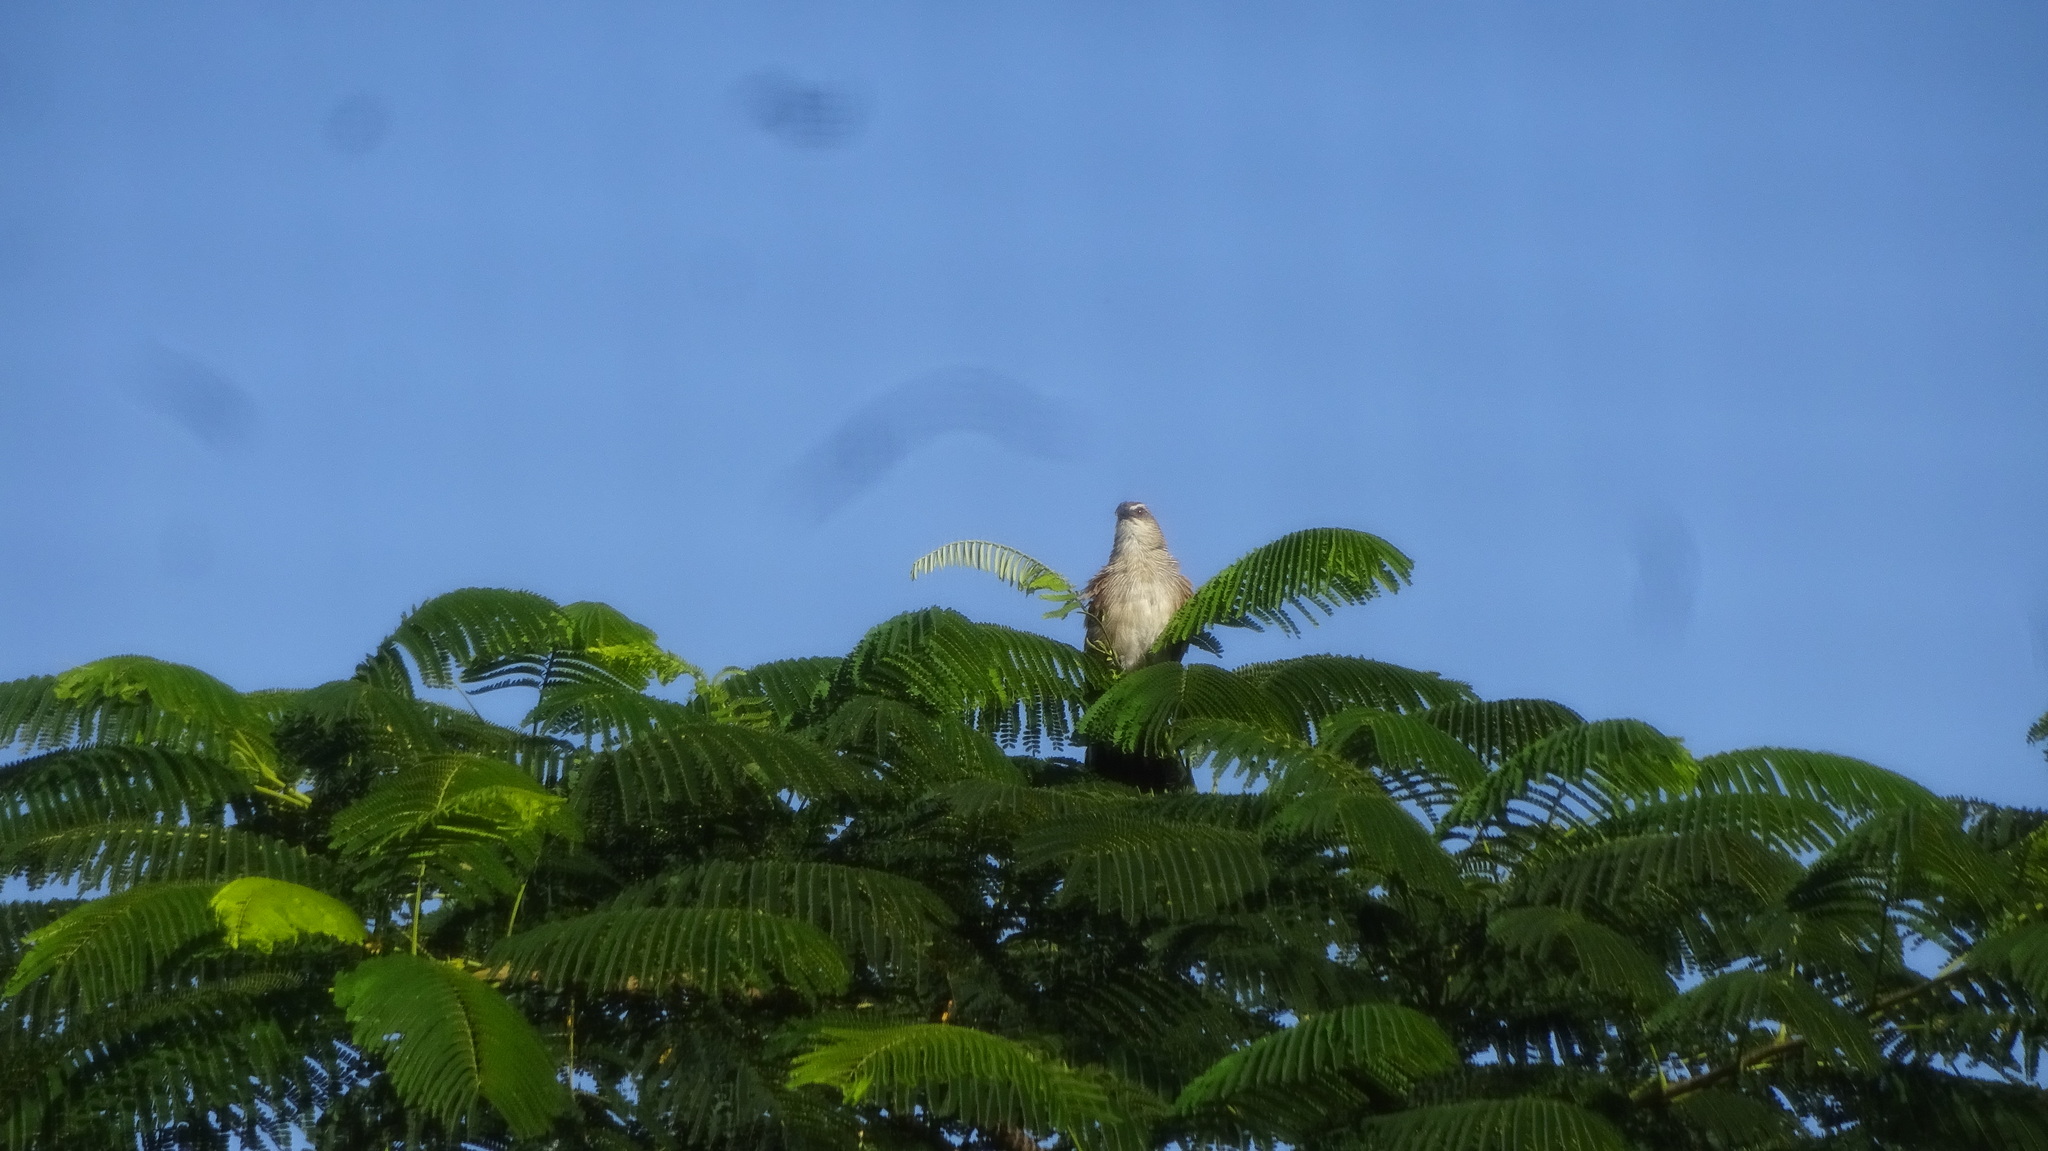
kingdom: Animalia
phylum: Chordata
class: Aves
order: Cuculiformes
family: Cuculidae
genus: Centropus
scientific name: Centropus superciliosus
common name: White-browed coucal
